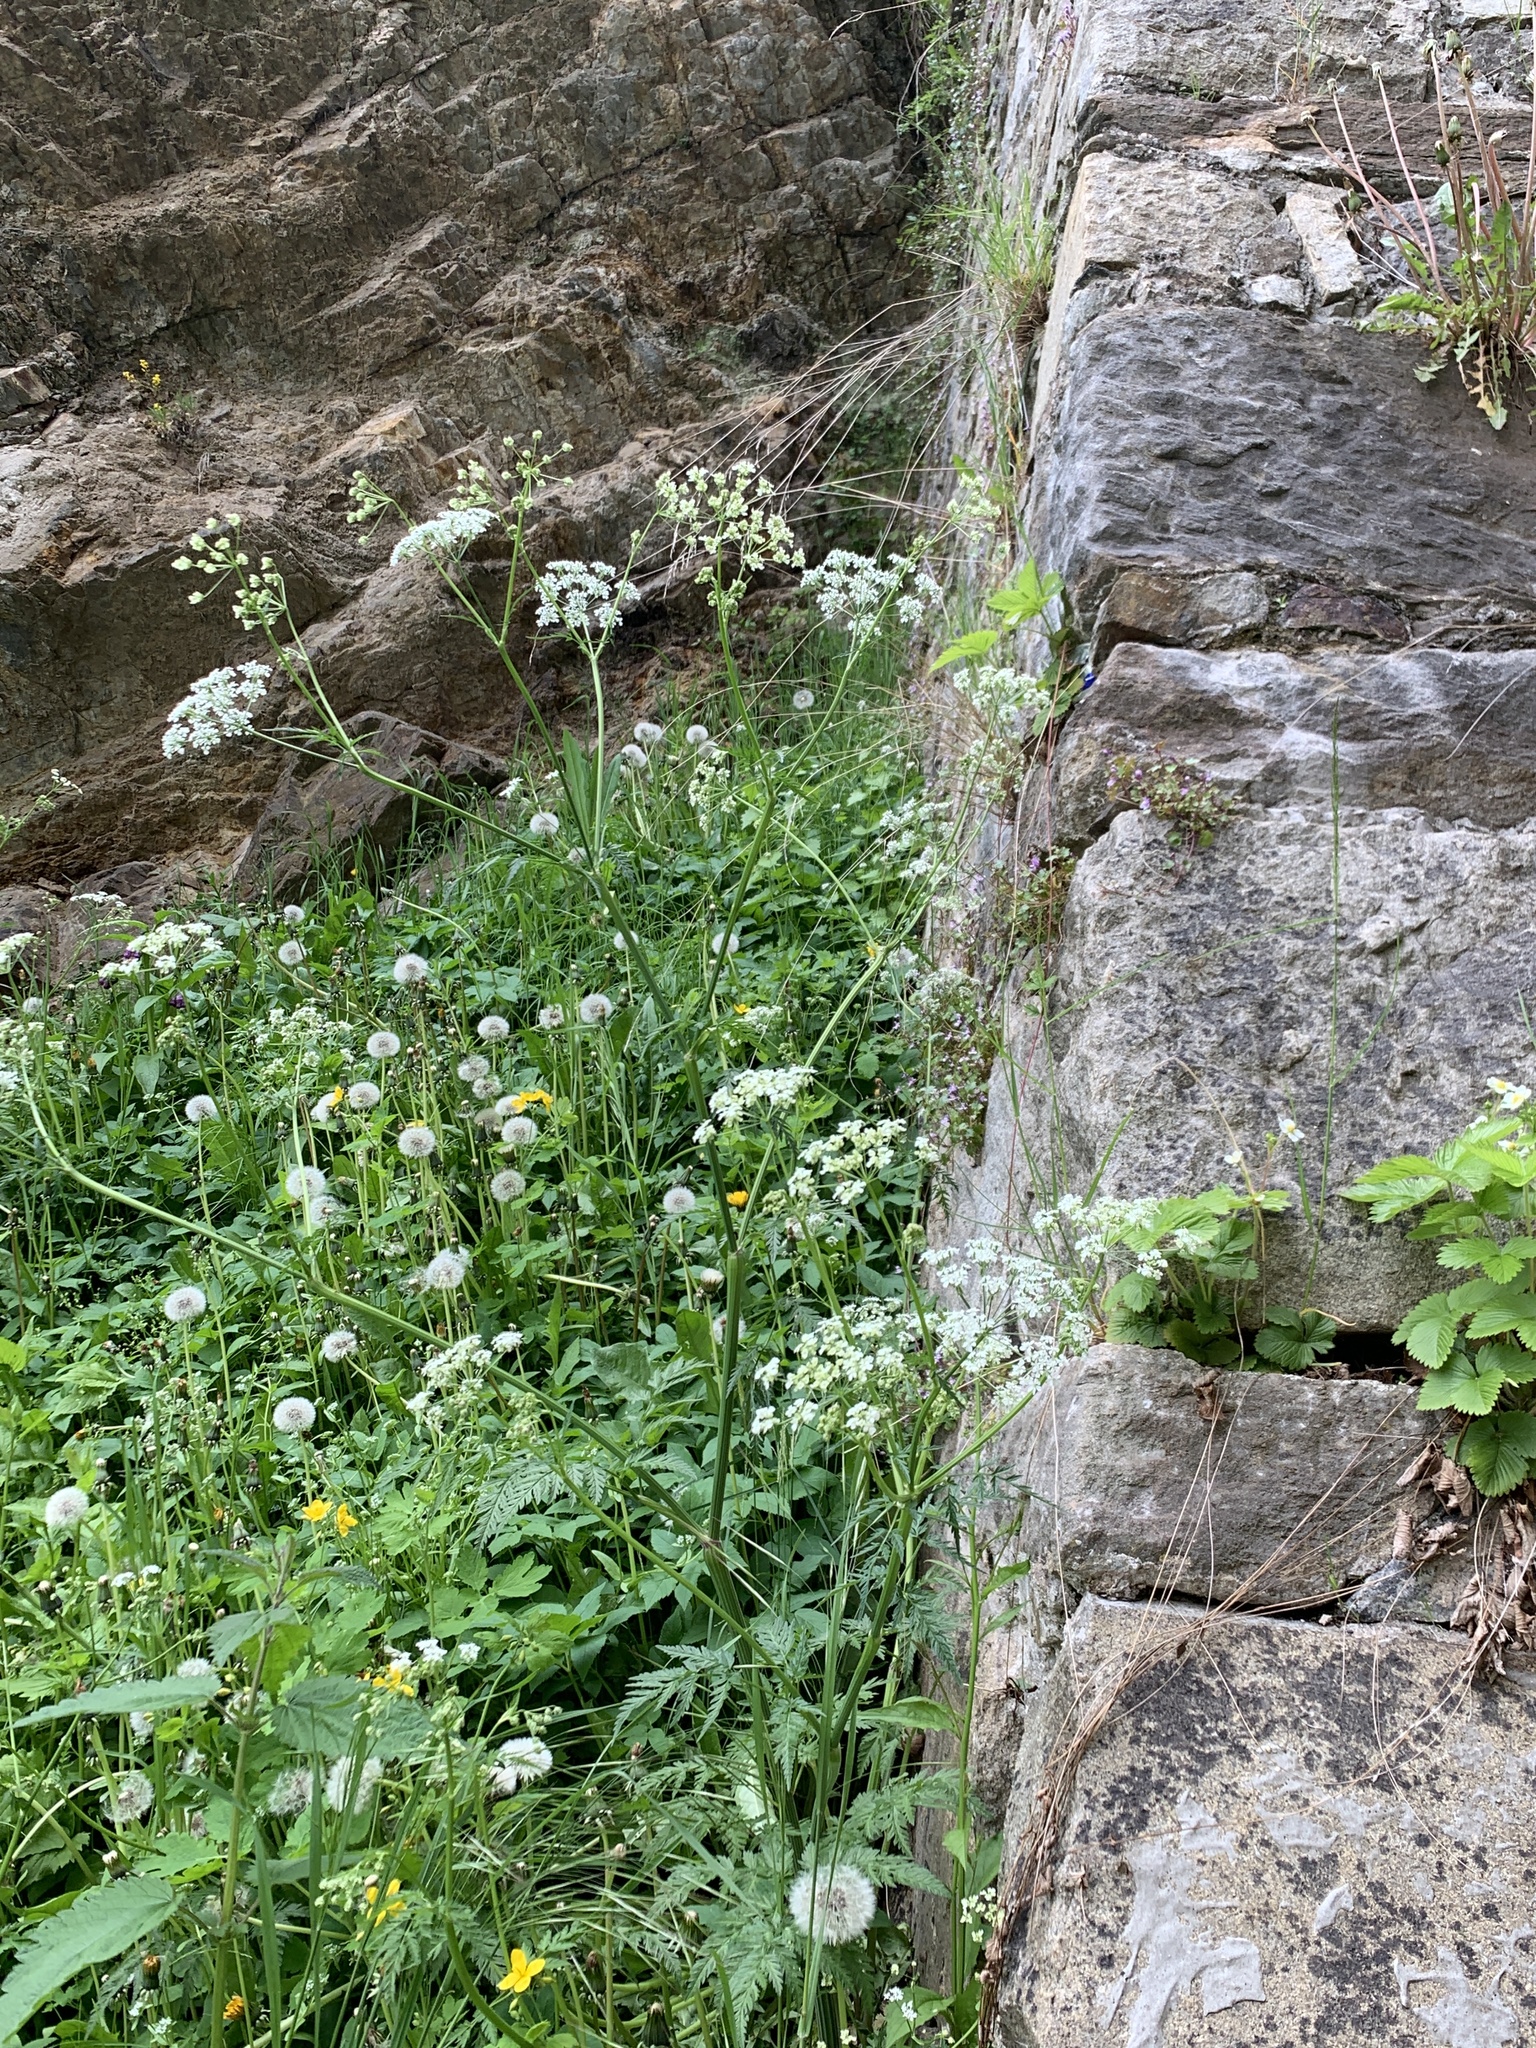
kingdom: Plantae
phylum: Tracheophyta
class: Magnoliopsida
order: Apiales
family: Apiaceae
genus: Anthriscus
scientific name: Anthriscus sylvestris
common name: Cow parsley
